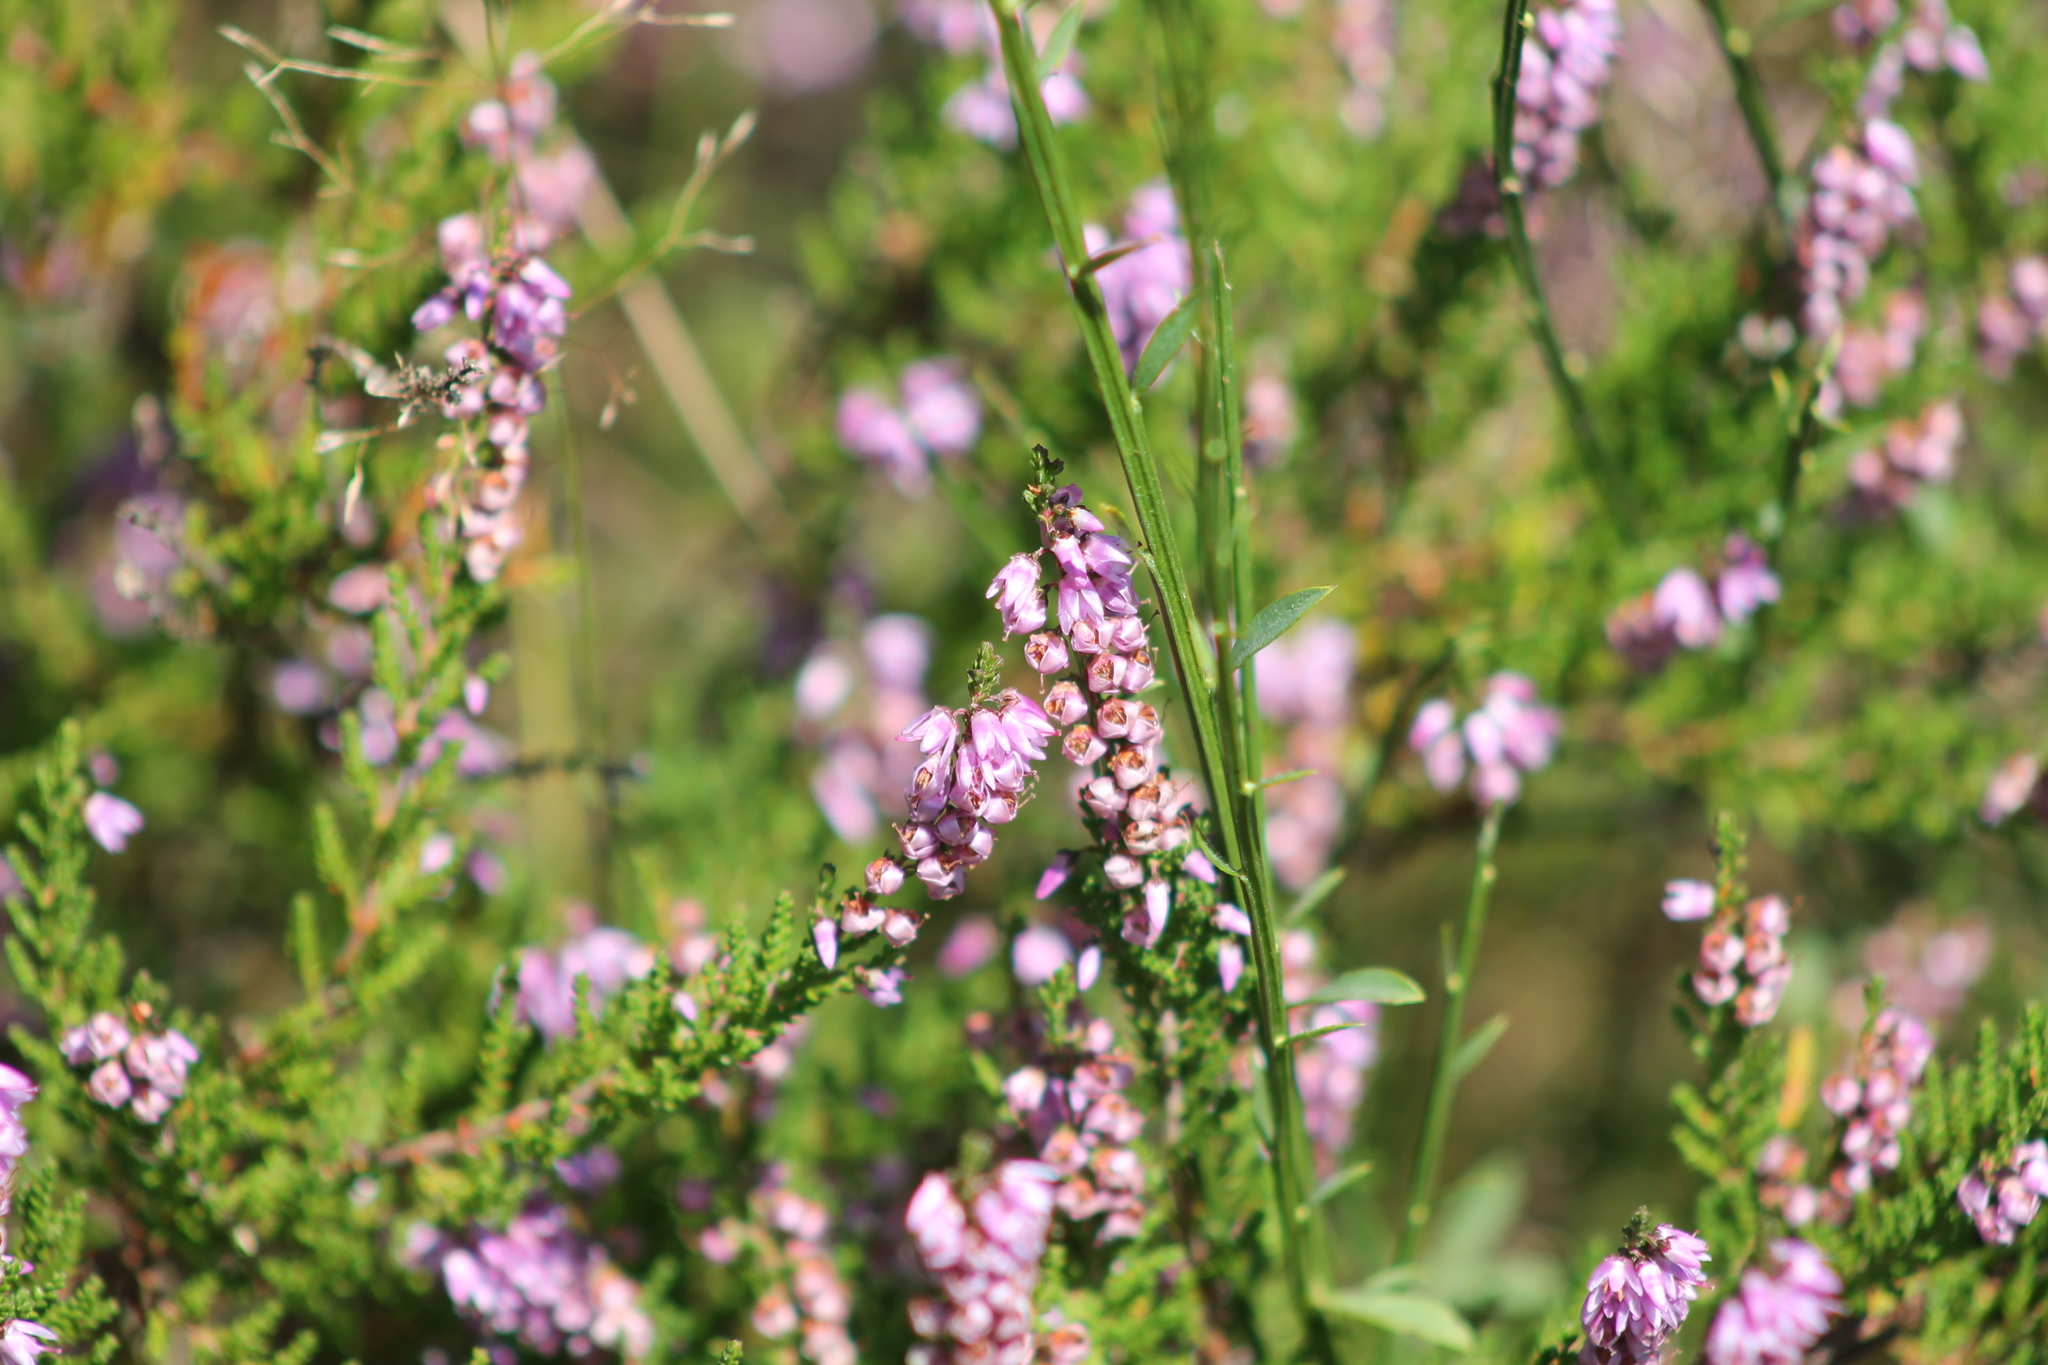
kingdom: Plantae
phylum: Tracheophyta
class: Magnoliopsida
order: Ericales
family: Ericaceae
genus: Calluna
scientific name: Calluna vulgaris
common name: Heather
